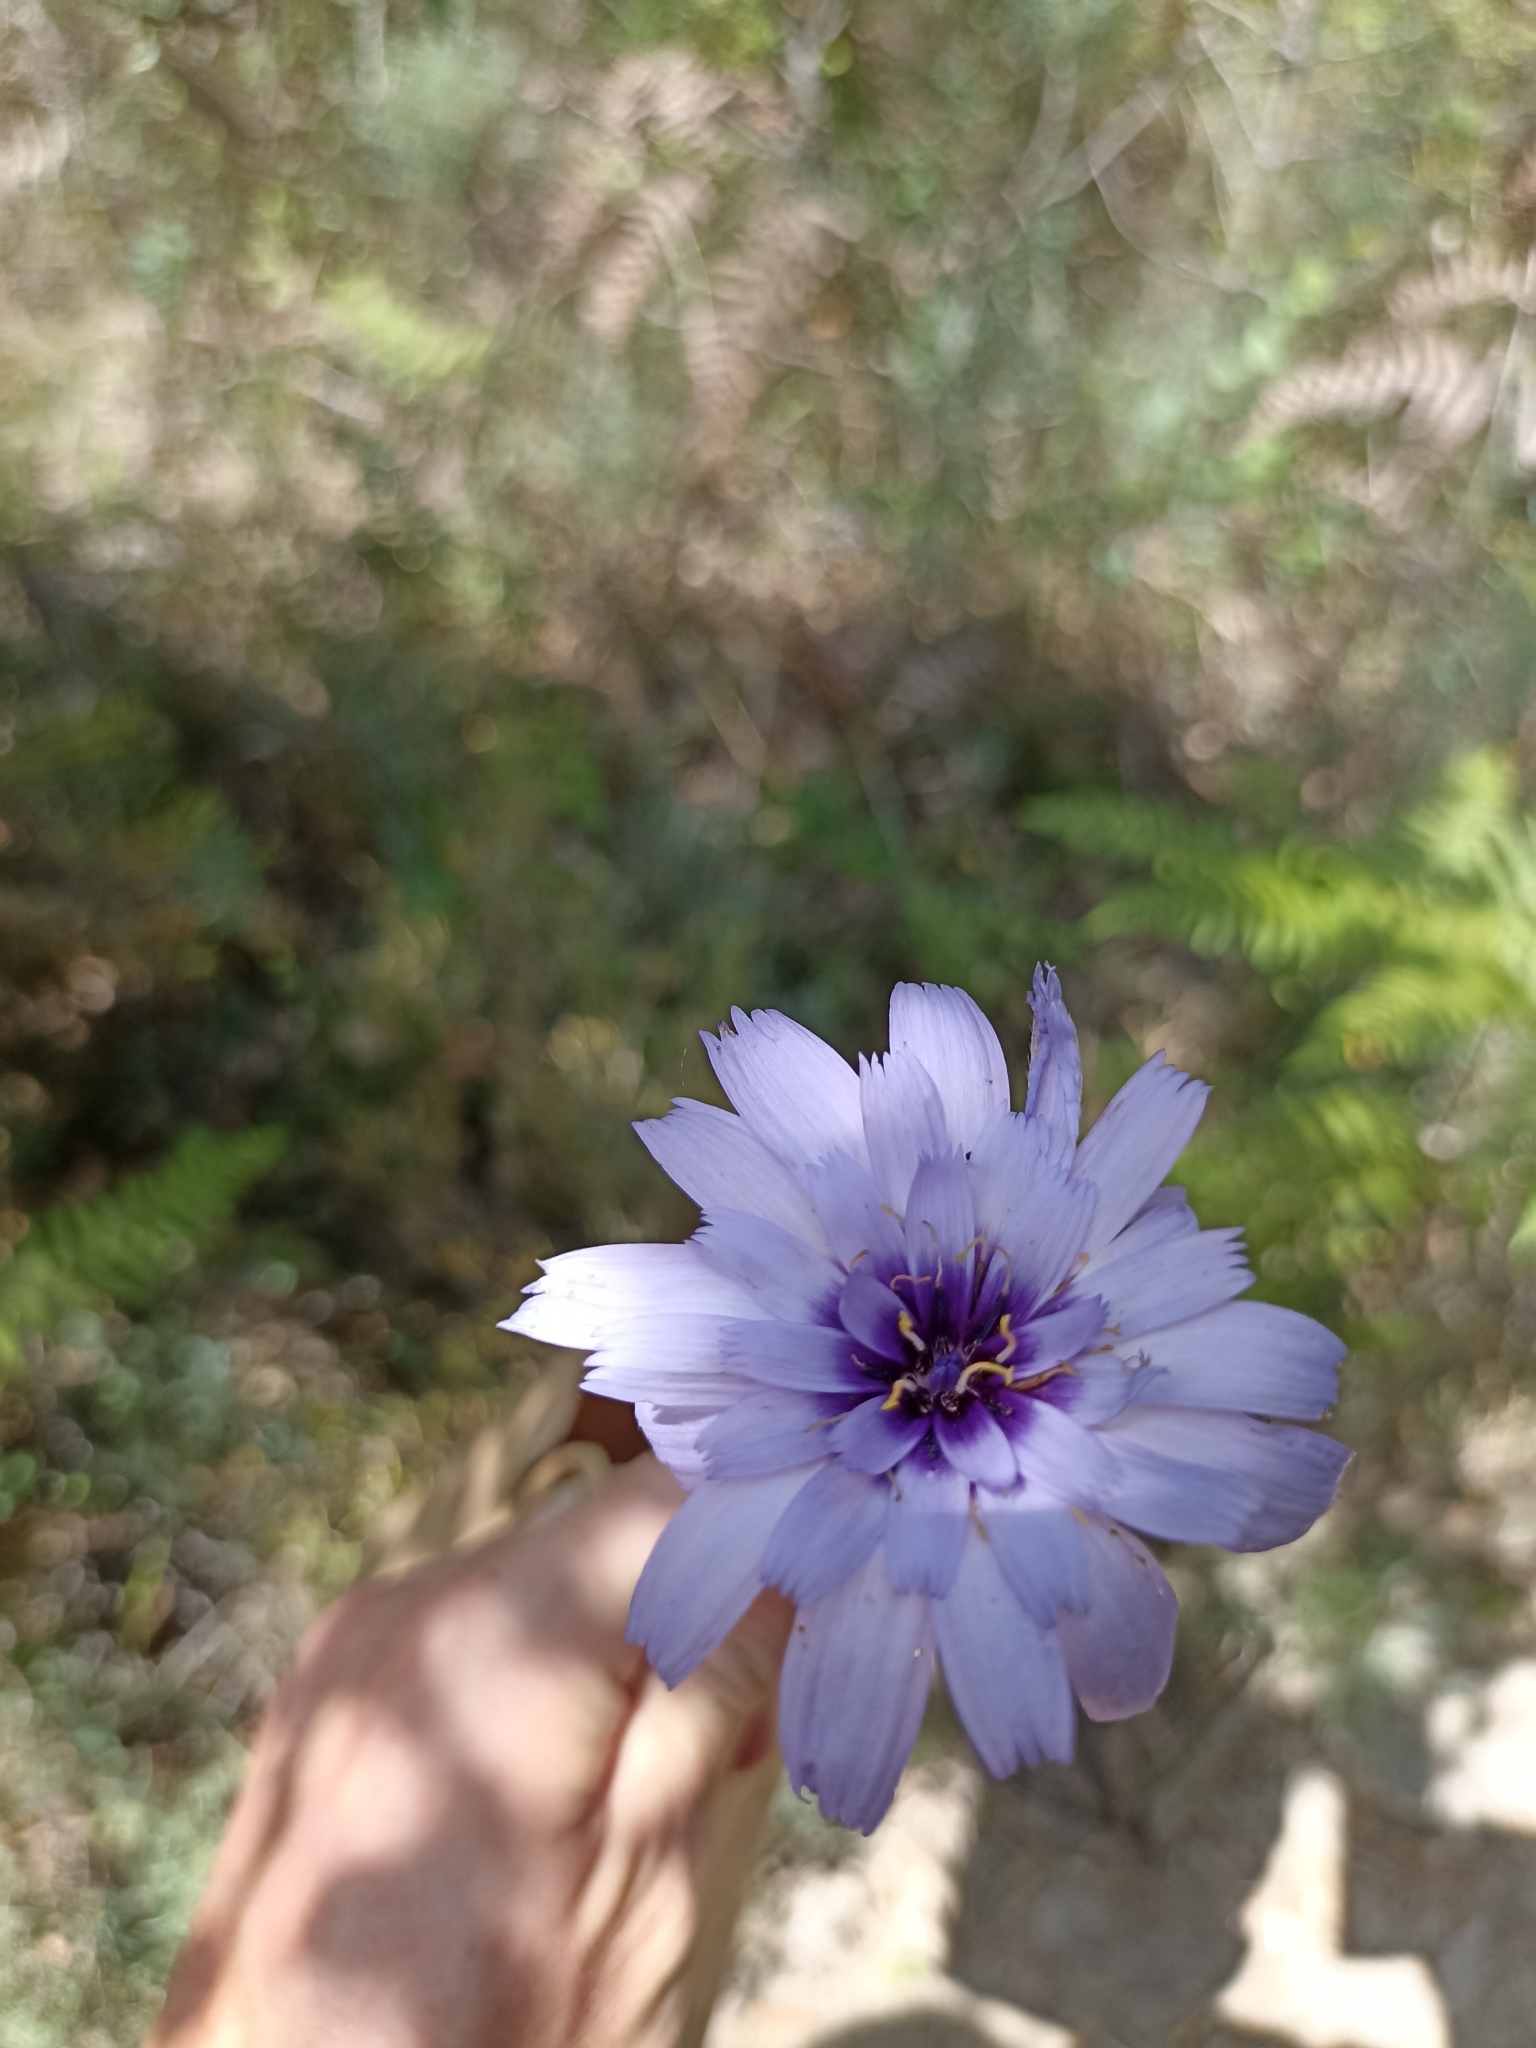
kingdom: Plantae
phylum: Tracheophyta
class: Magnoliopsida
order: Asterales
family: Asteraceae
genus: Catananche
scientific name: Catananche caerulea
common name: Blue cupidone
